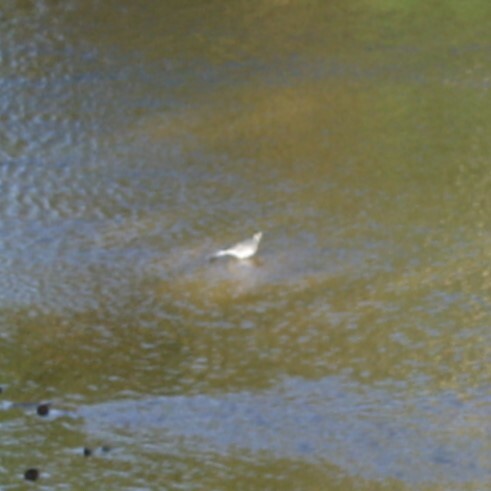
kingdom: Animalia
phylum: Chordata
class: Aves
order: Passeriformes
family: Motacillidae
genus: Motacilla
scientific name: Motacilla alba
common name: White wagtail
